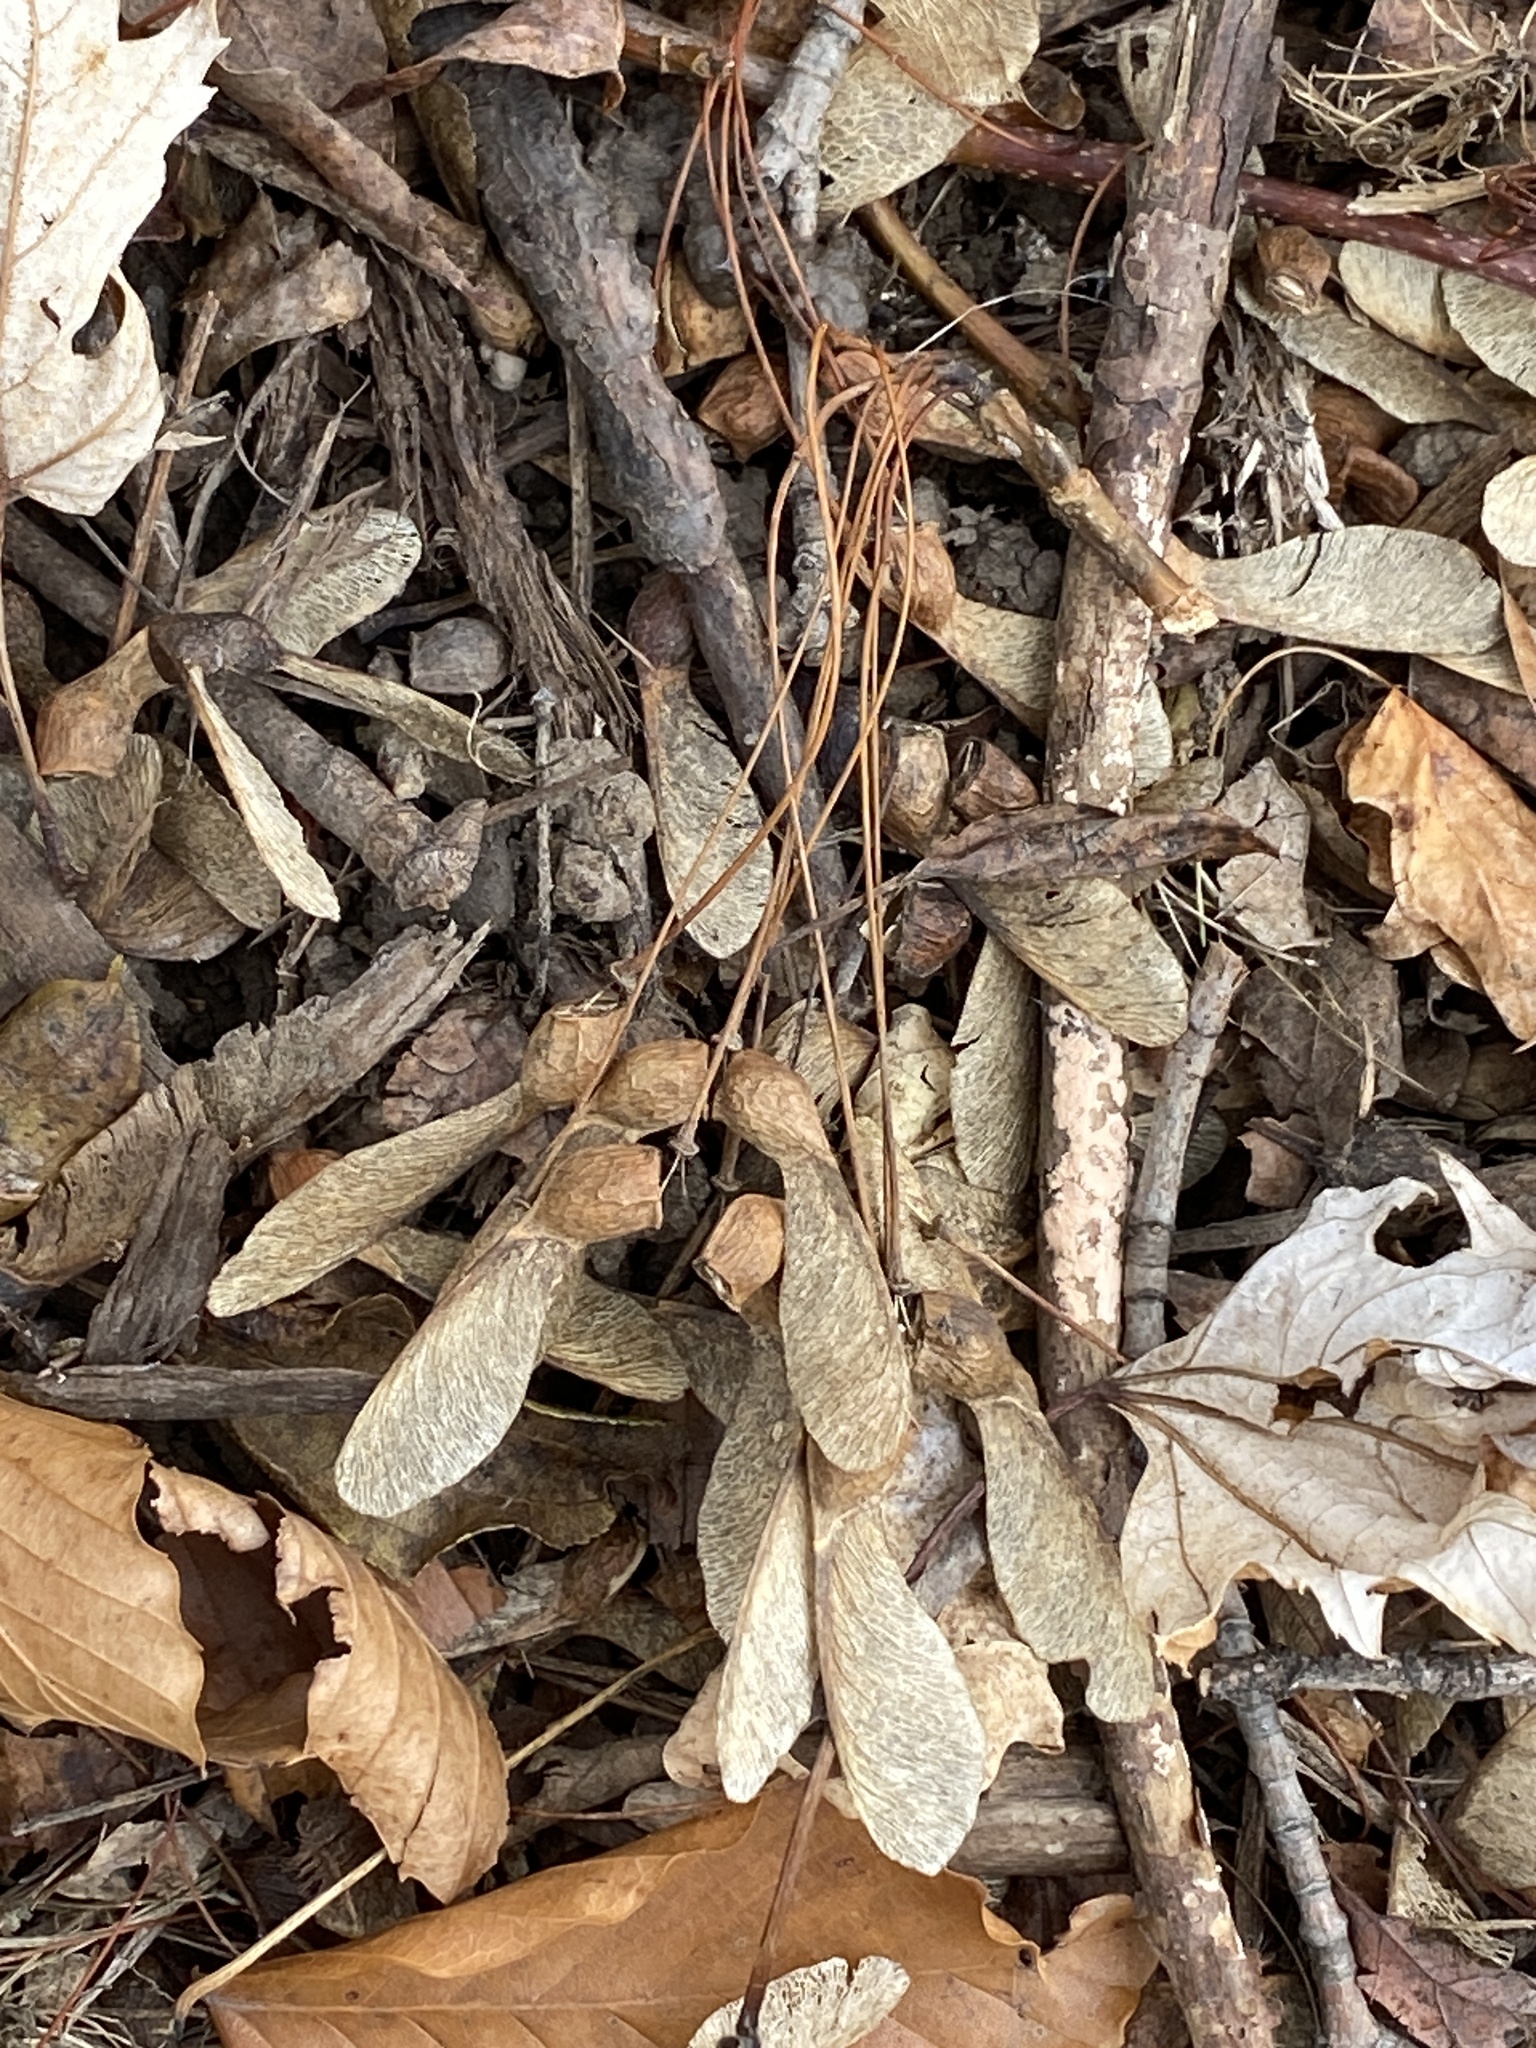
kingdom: Plantae
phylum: Tracheophyta
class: Magnoliopsida
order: Sapindales
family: Sapindaceae
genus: Acer
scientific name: Acer saccharum
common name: Sugar maple
